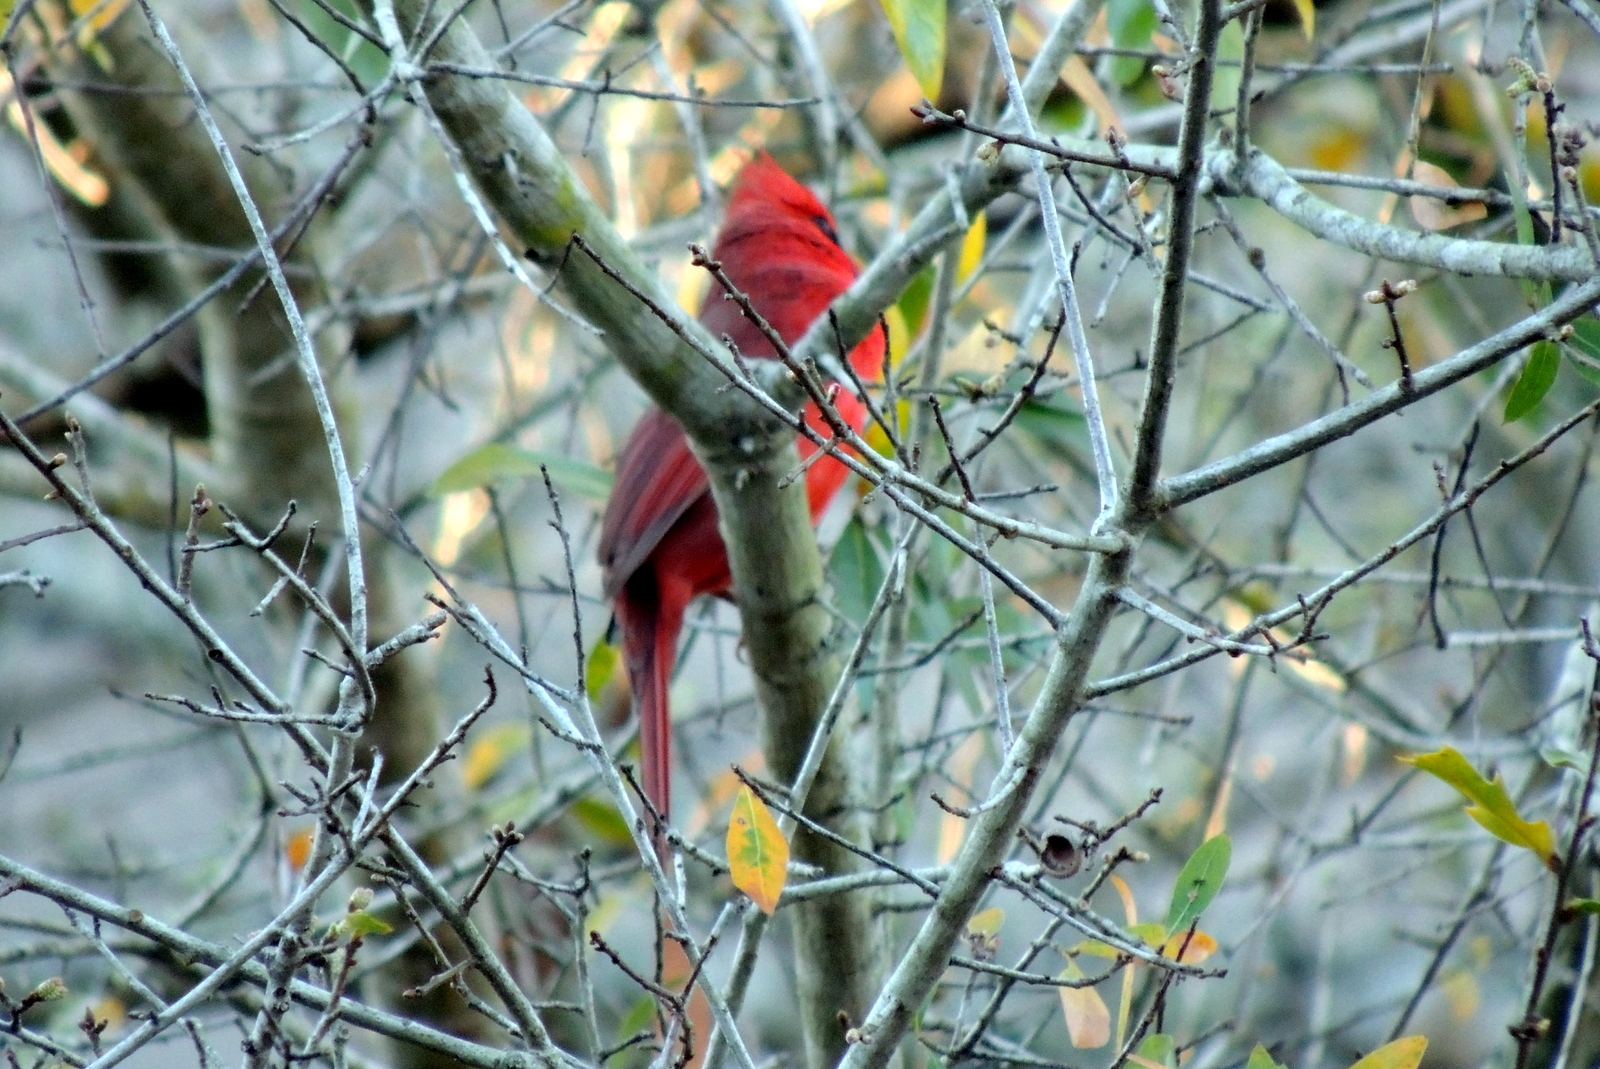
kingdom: Animalia
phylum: Chordata
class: Aves
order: Passeriformes
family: Cardinalidae
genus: Cardinalis
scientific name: Cardinalis cardinalis
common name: Northern cardinal
